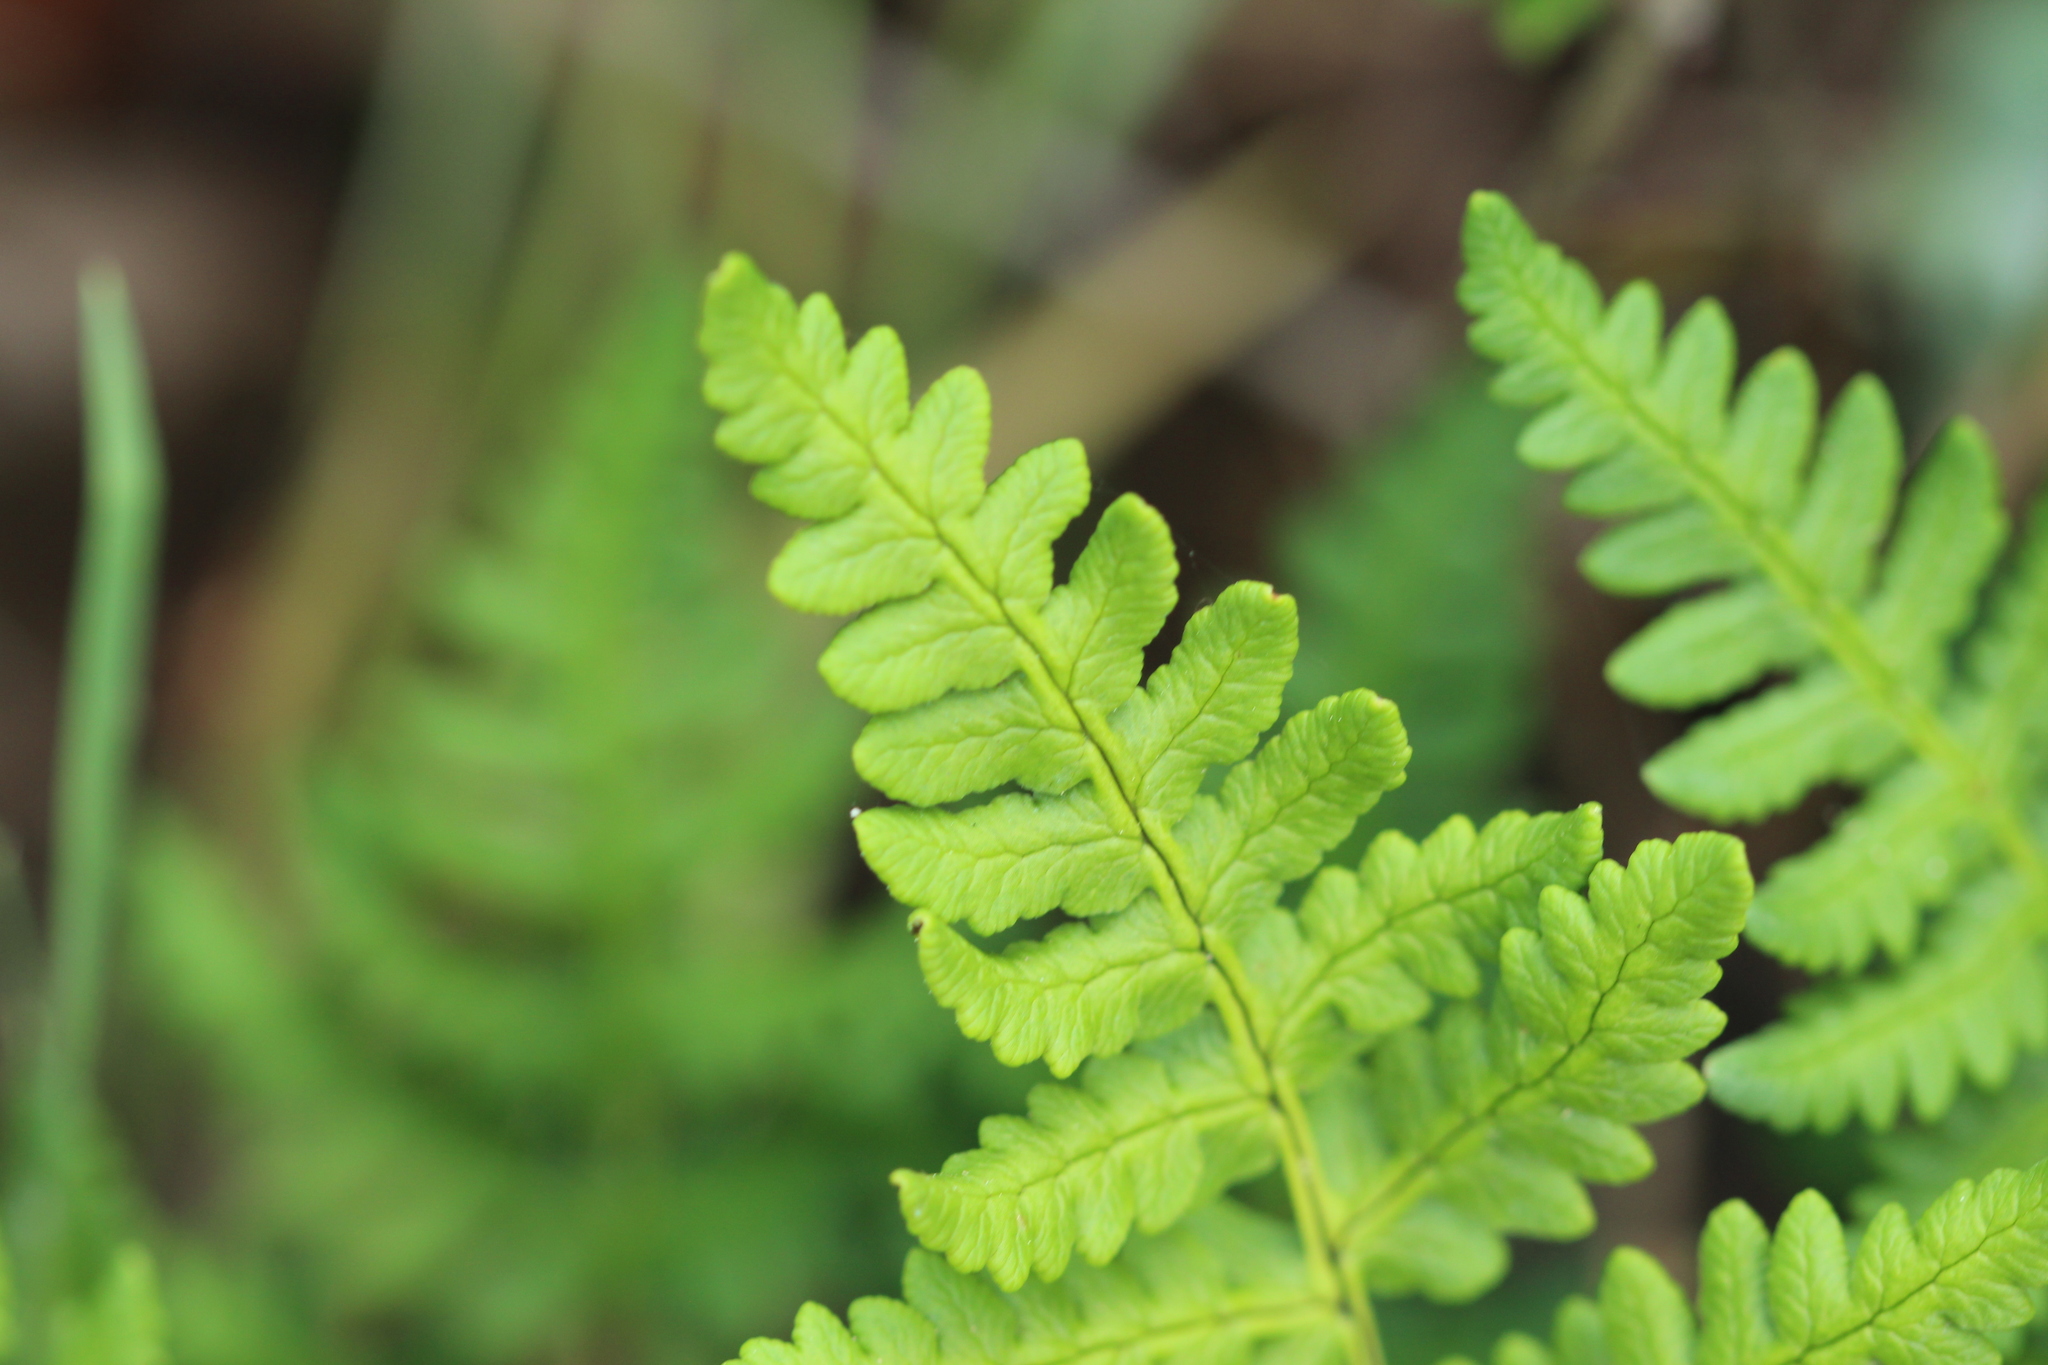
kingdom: Plantae
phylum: Tracheophyta
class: Polypodiopsida
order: Polypodiales
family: Pteridaceae
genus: Pentagramma
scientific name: Pentagramma triangularis
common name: Gold fern
